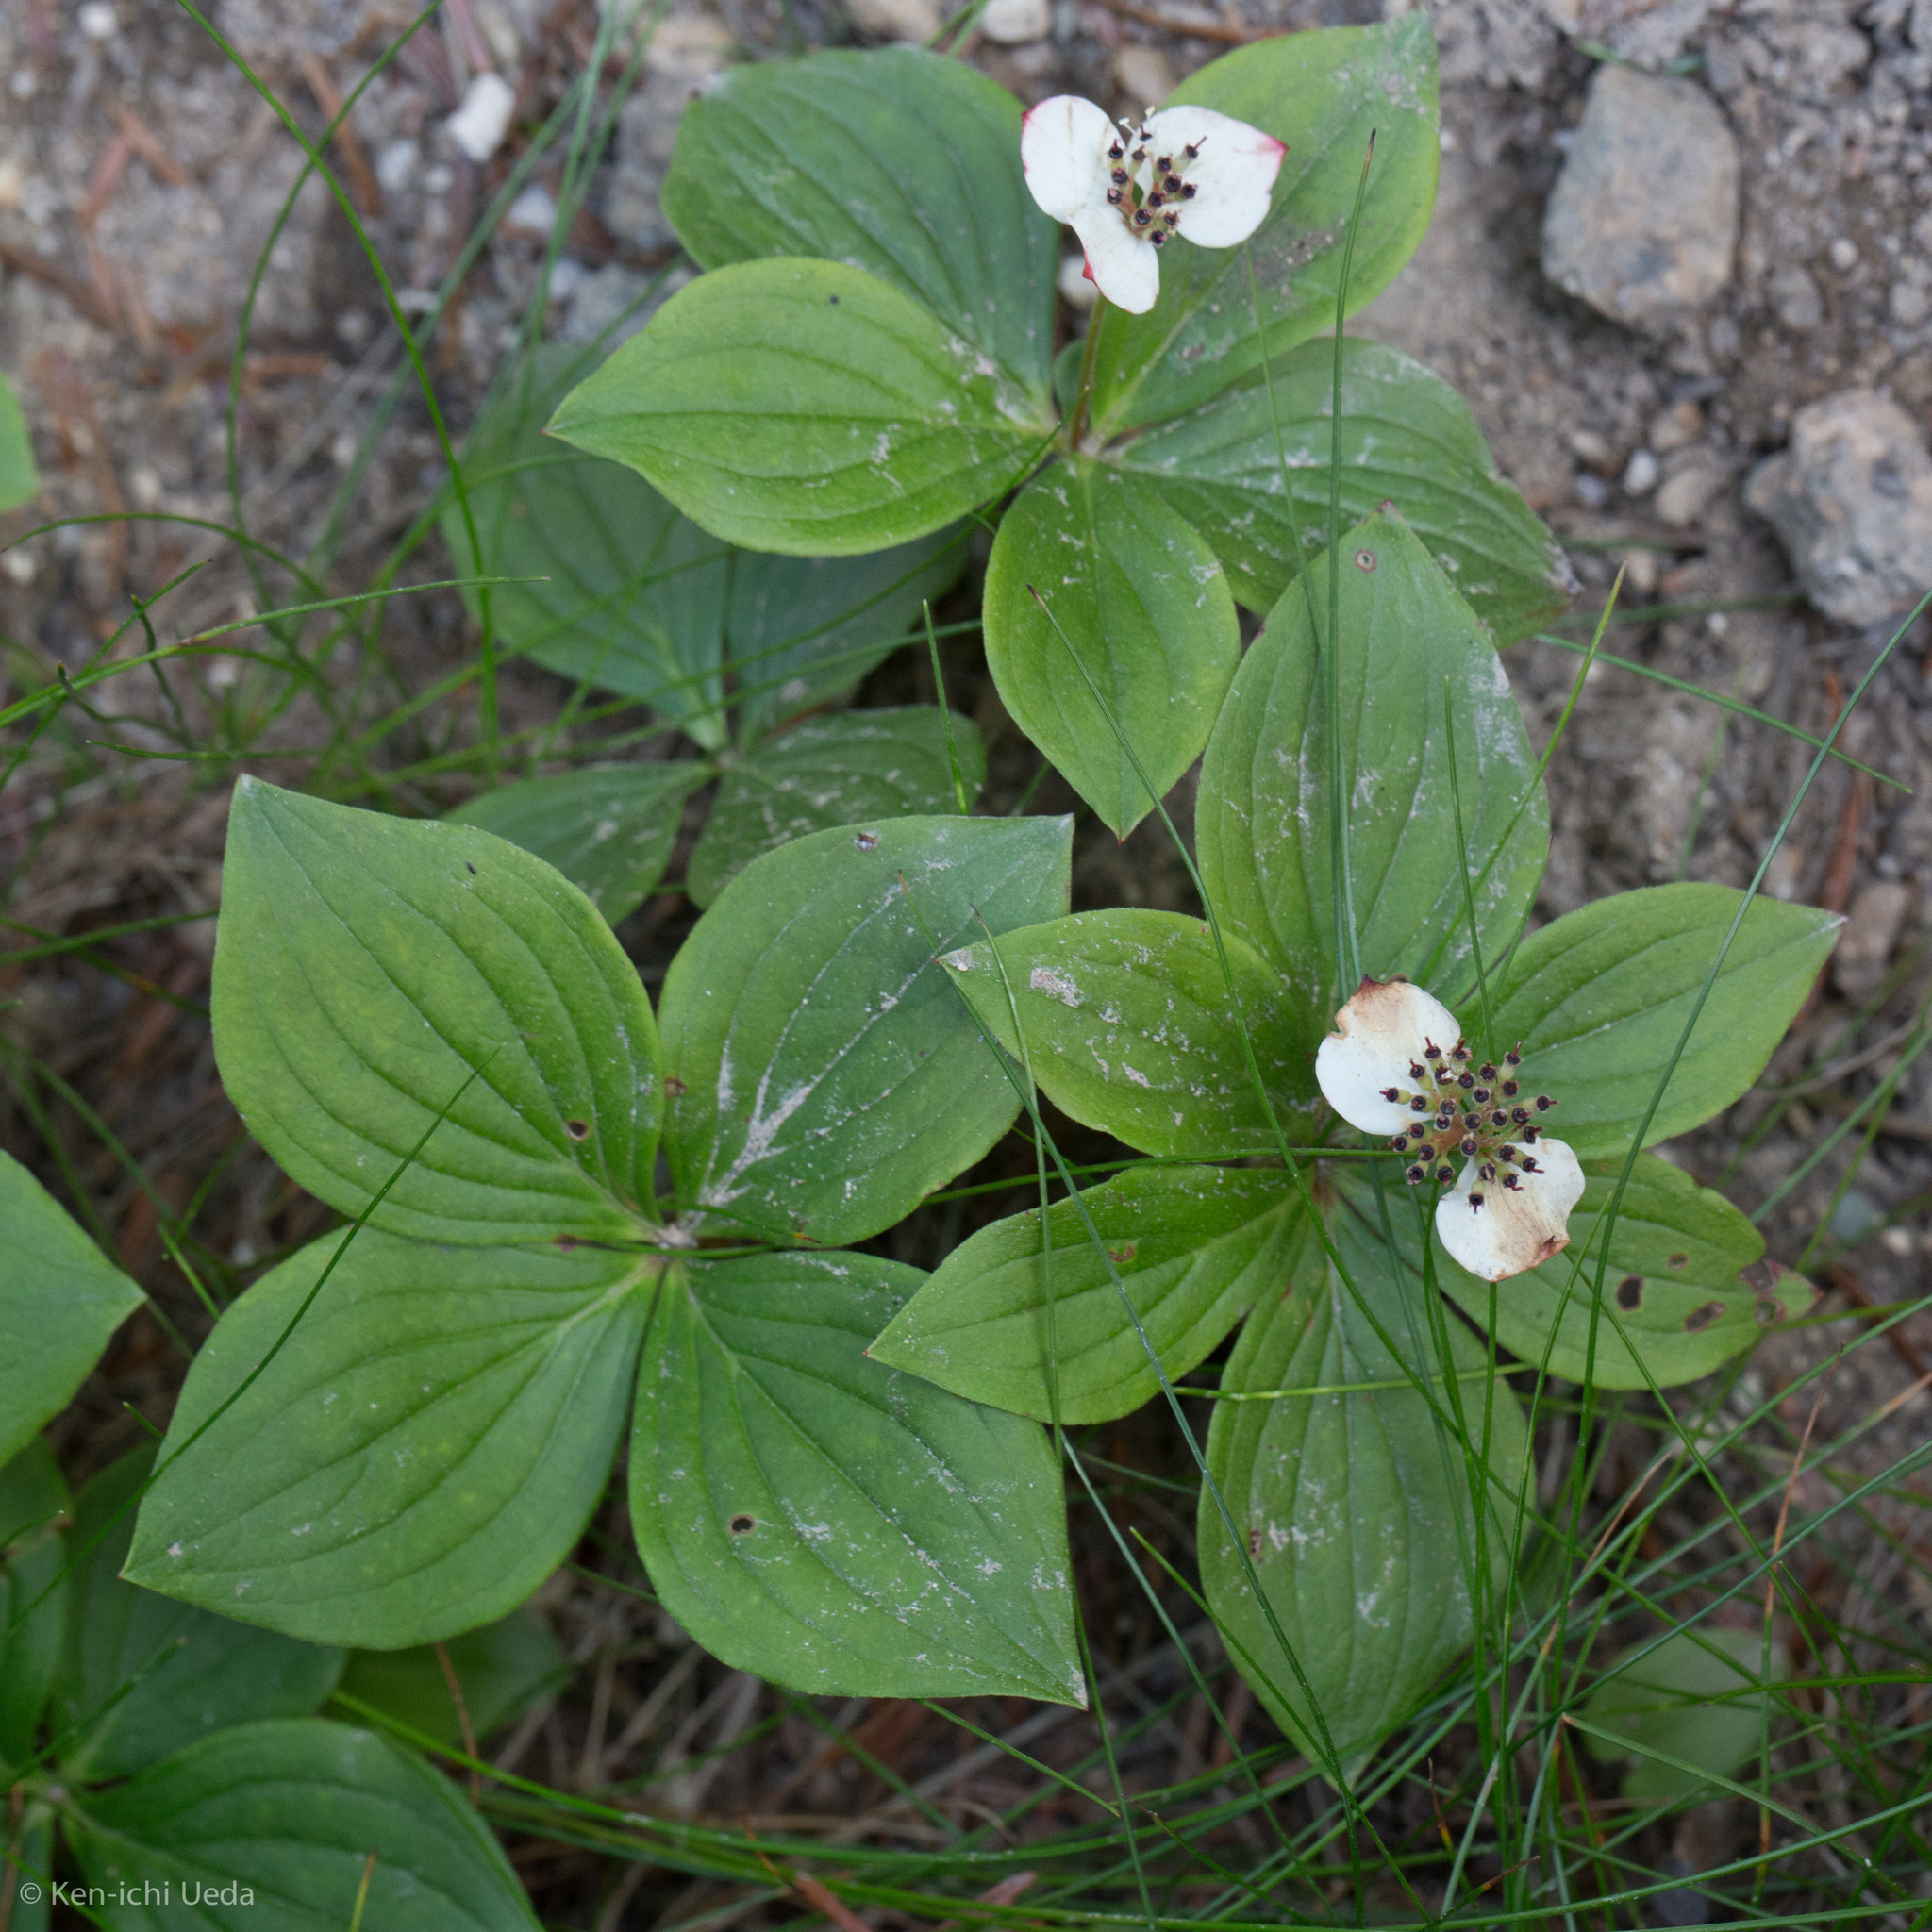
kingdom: Plantae
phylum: Tracheophyta
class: Magnoliopsida
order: Cornales
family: Cornaceae
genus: Cornus
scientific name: Cornus canadensis
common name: Creeping dogwood
